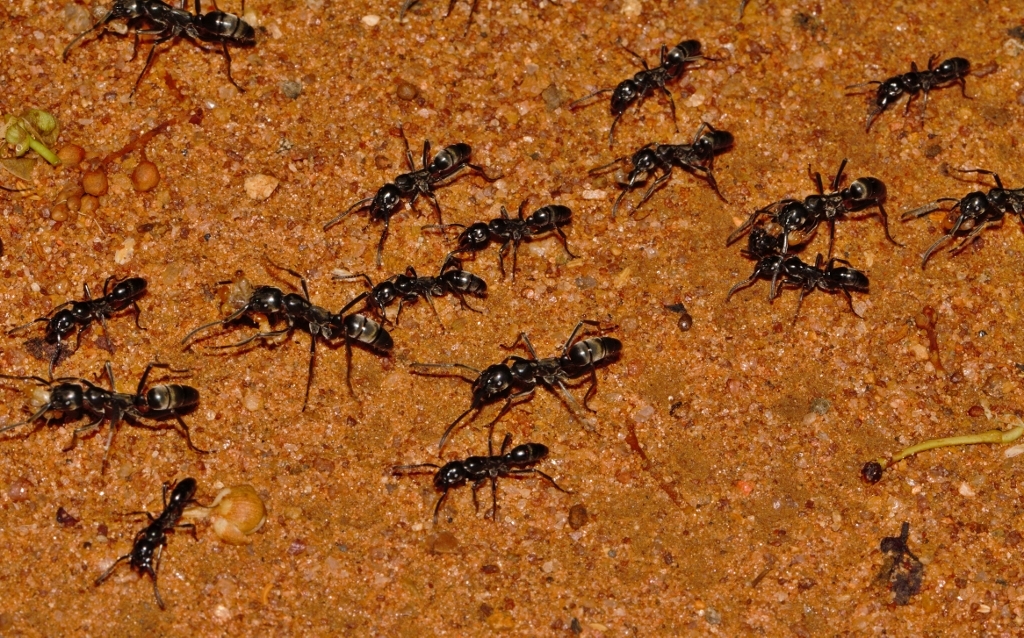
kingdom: Animalia
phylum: Arthropoda
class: Insecta
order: Hymenoptera
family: Formicidae
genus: Megaponera
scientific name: Megaponera analis
